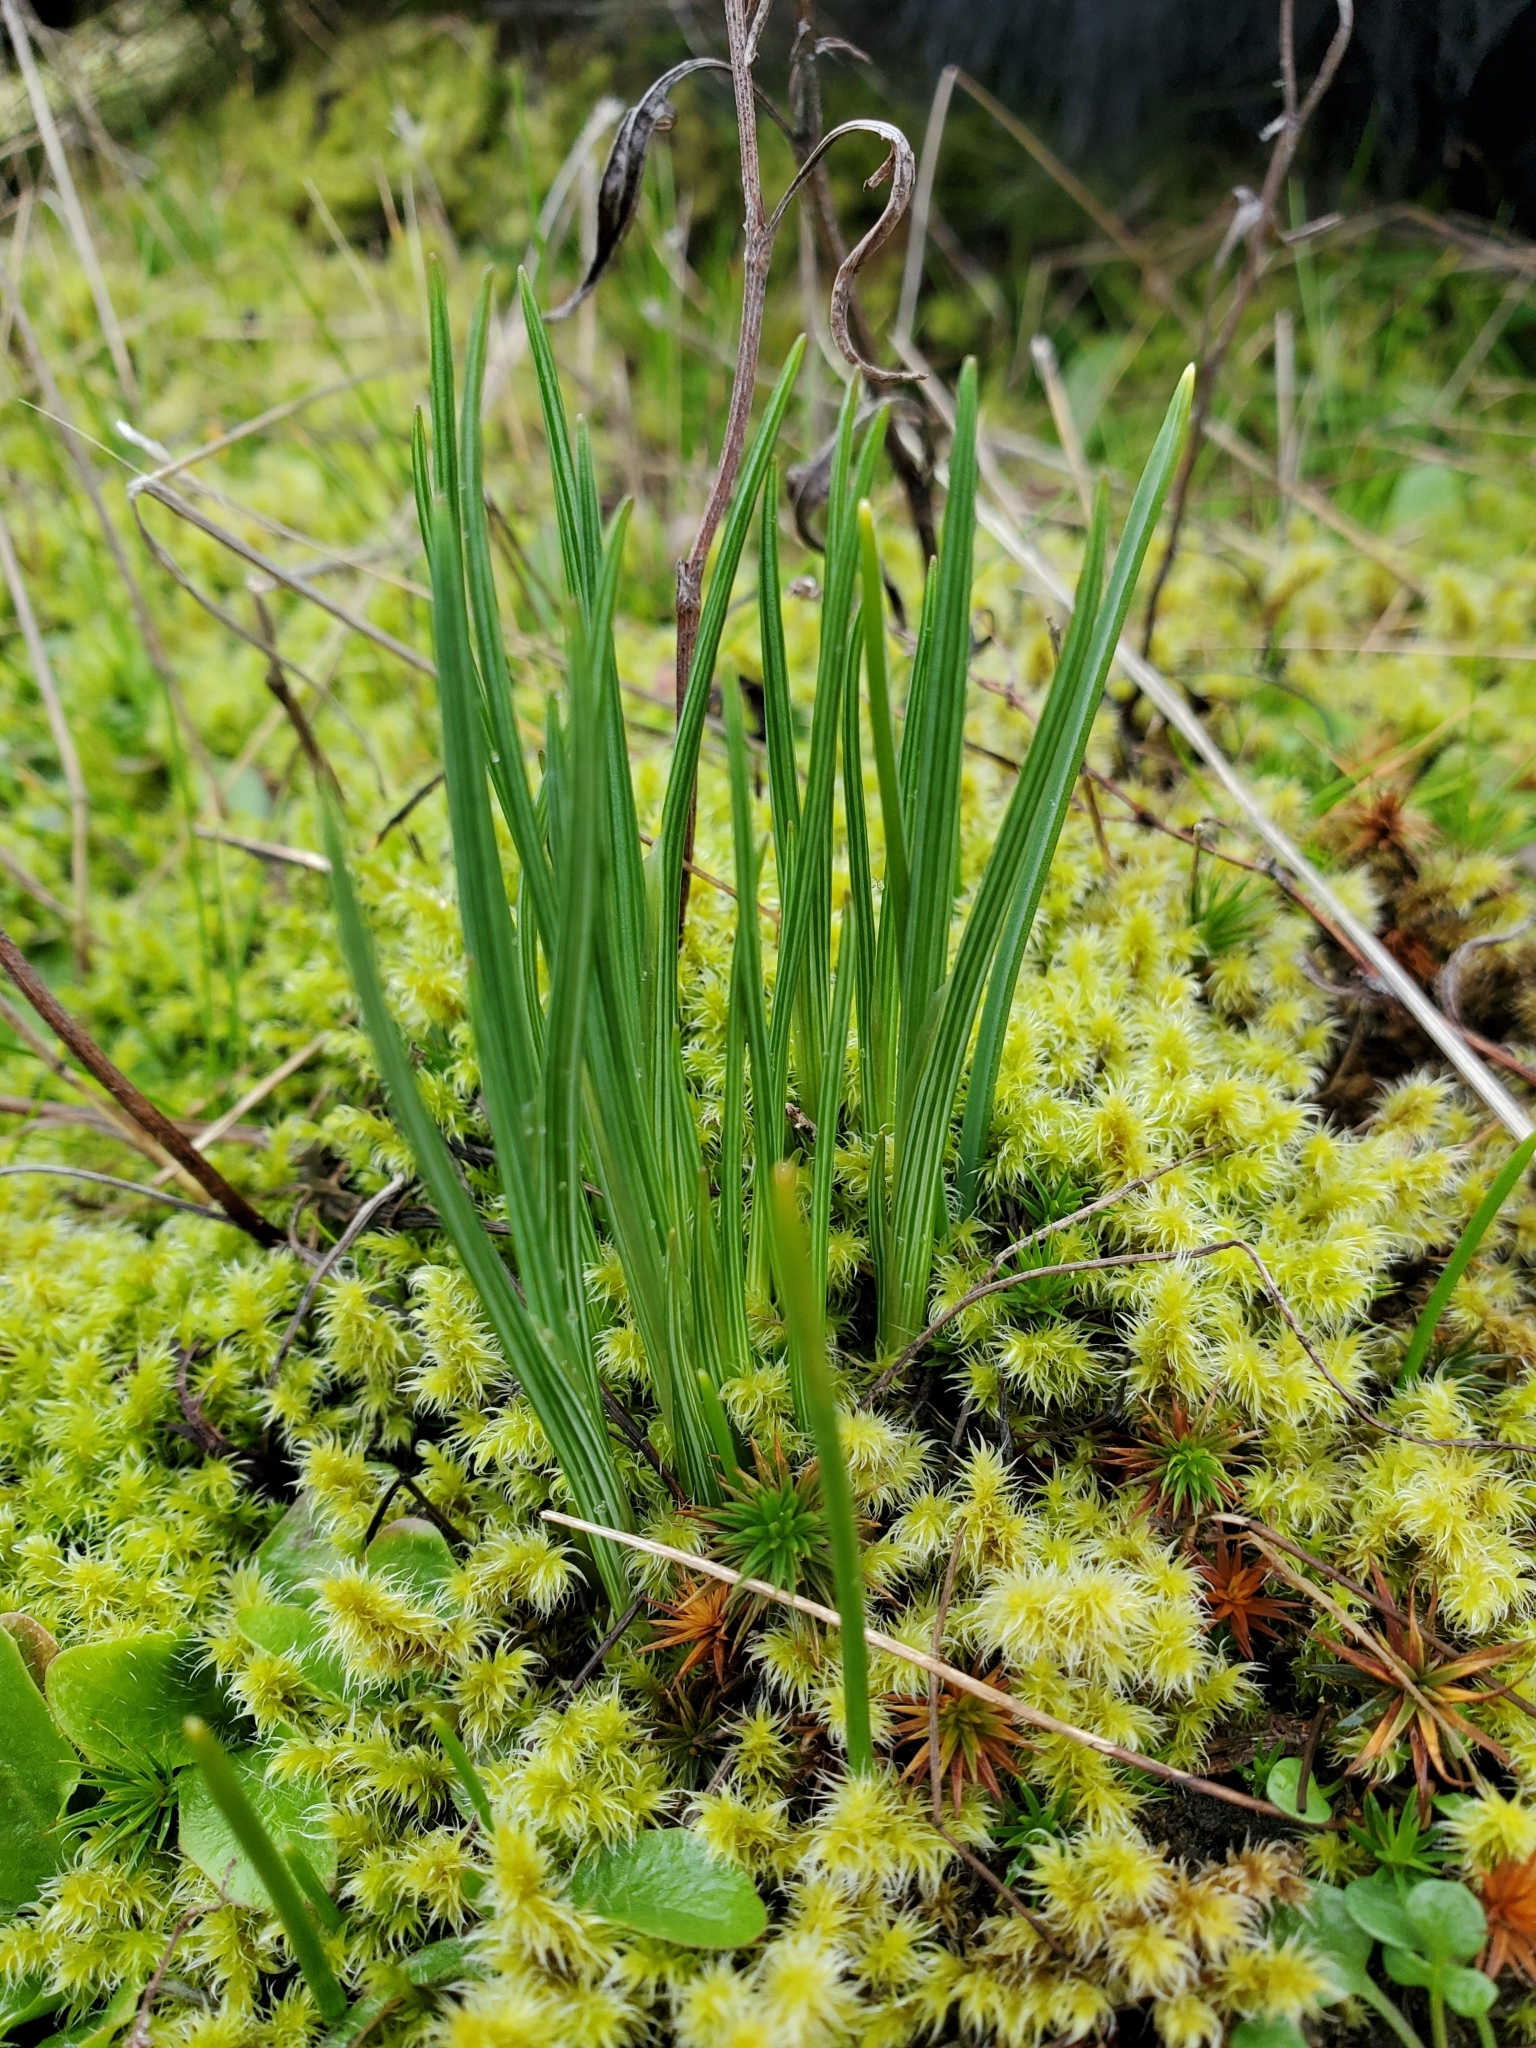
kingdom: Plantae
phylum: Tracheophyta
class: Liliopsida
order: Asparagales
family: Iridaceae
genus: Olsynium
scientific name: Olsynium douglasii
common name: Douglas' grasswidow
